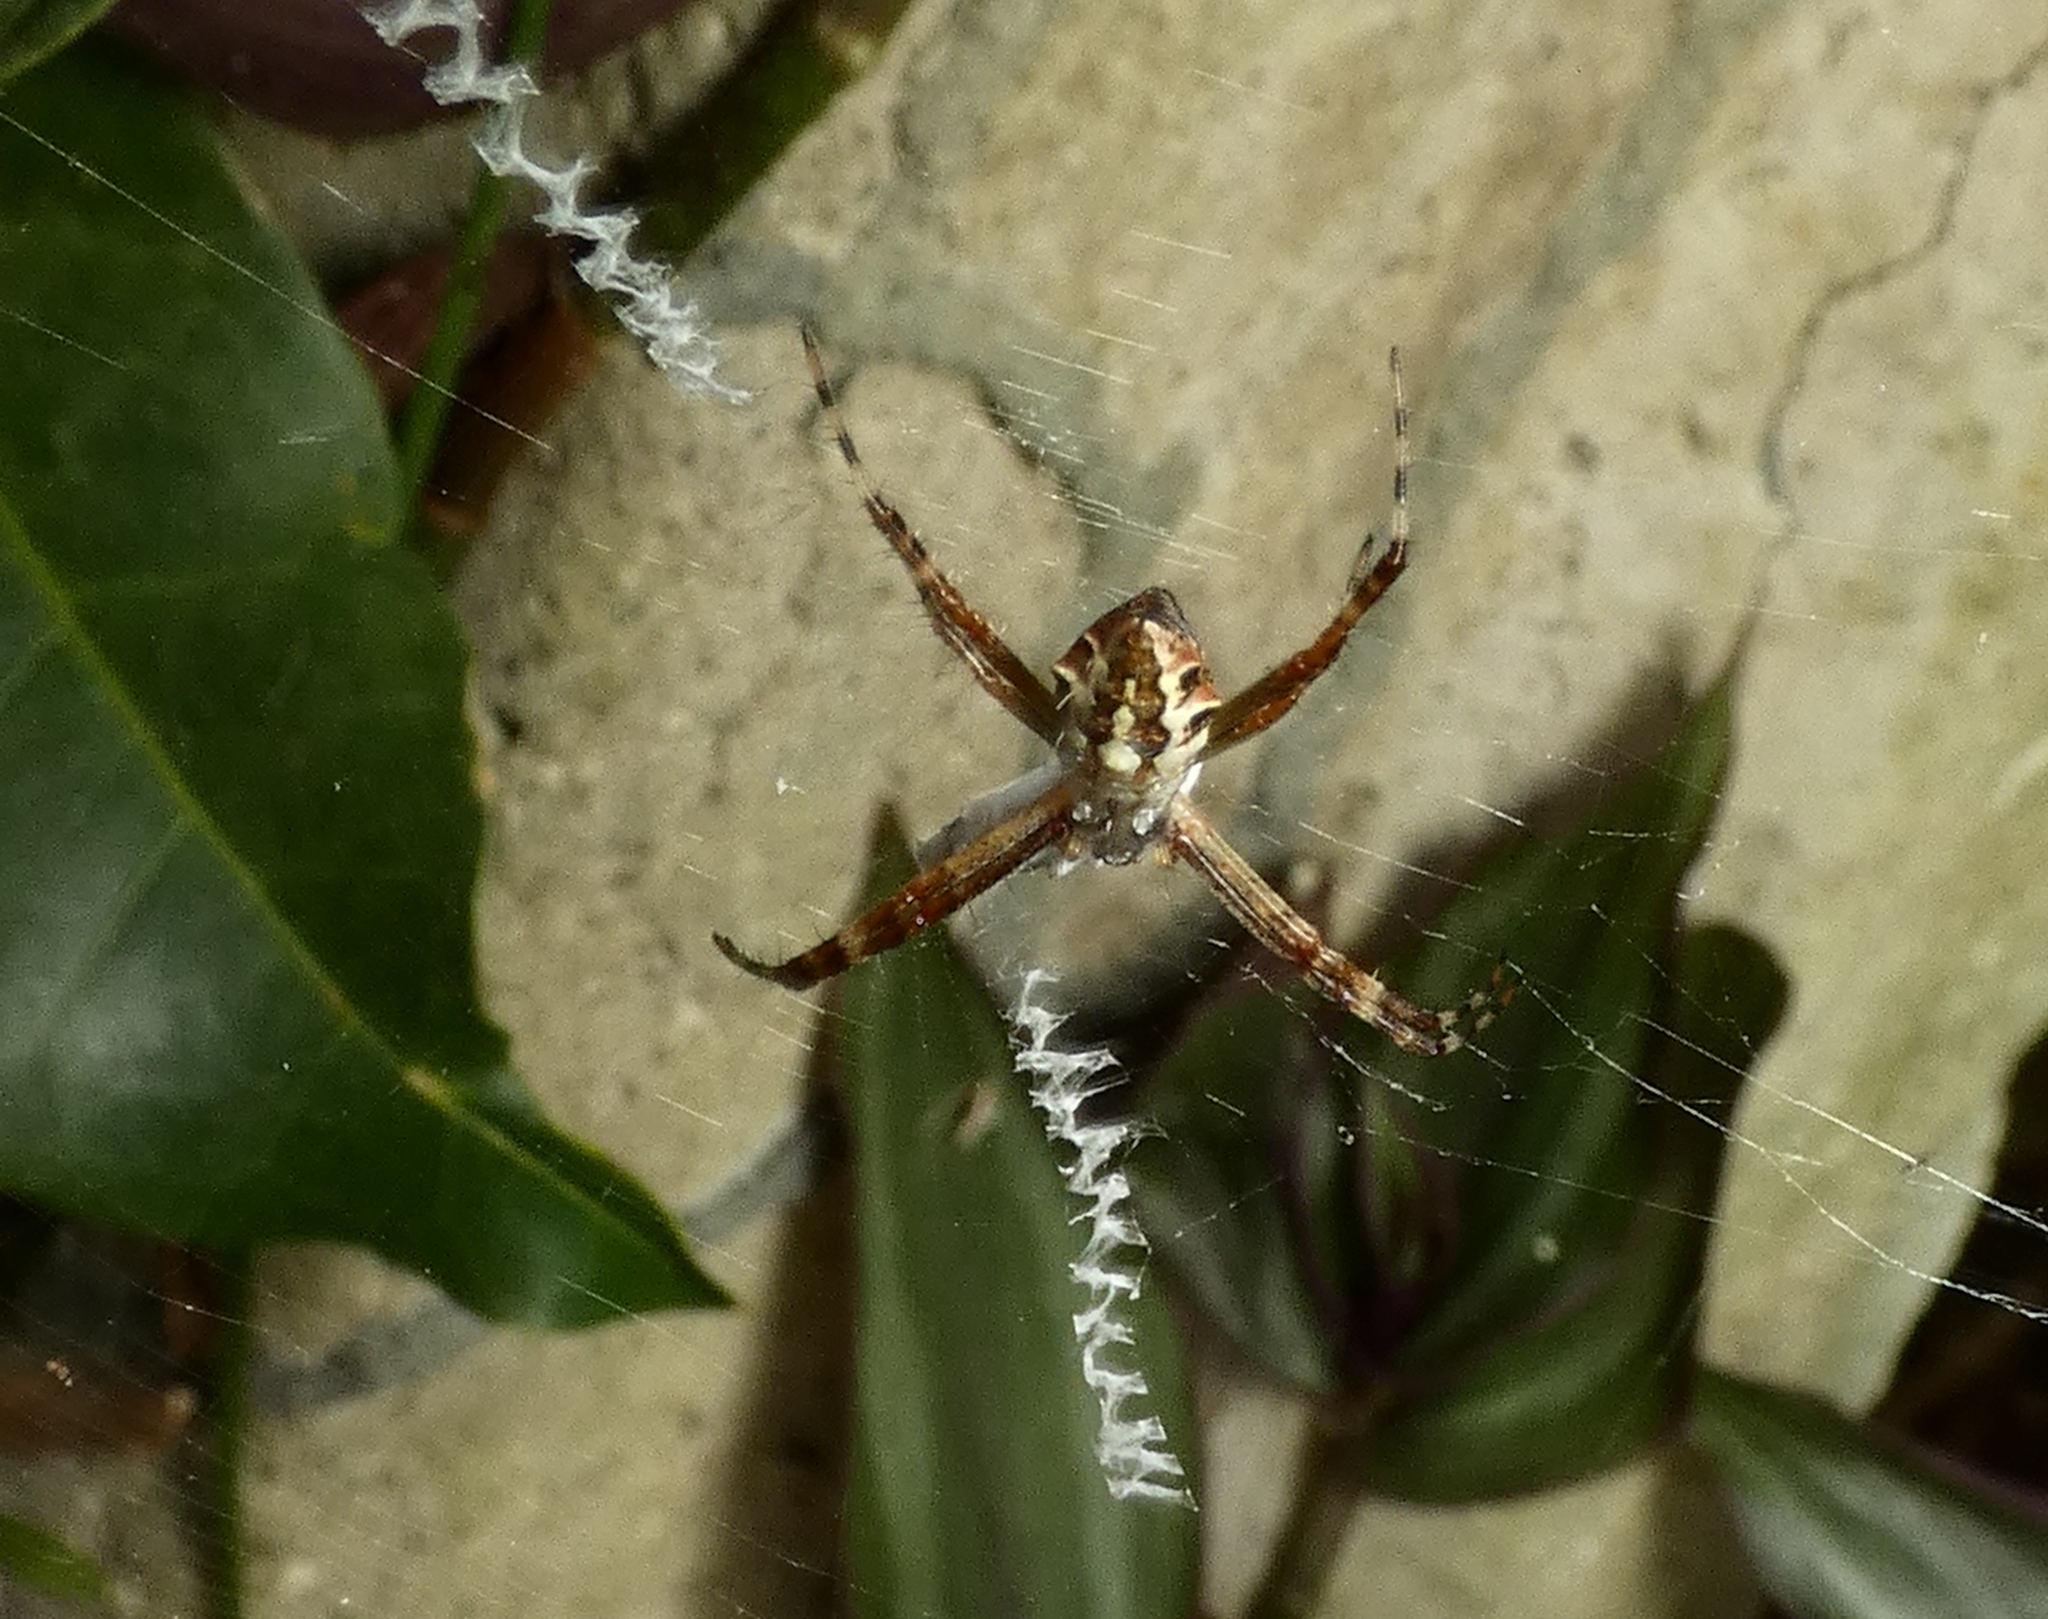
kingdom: Animalia
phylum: Arthropoda
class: Arachnida
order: Araneae
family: Araneidae
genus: Argiope
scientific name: Argiope argentata
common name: Orb weavers
